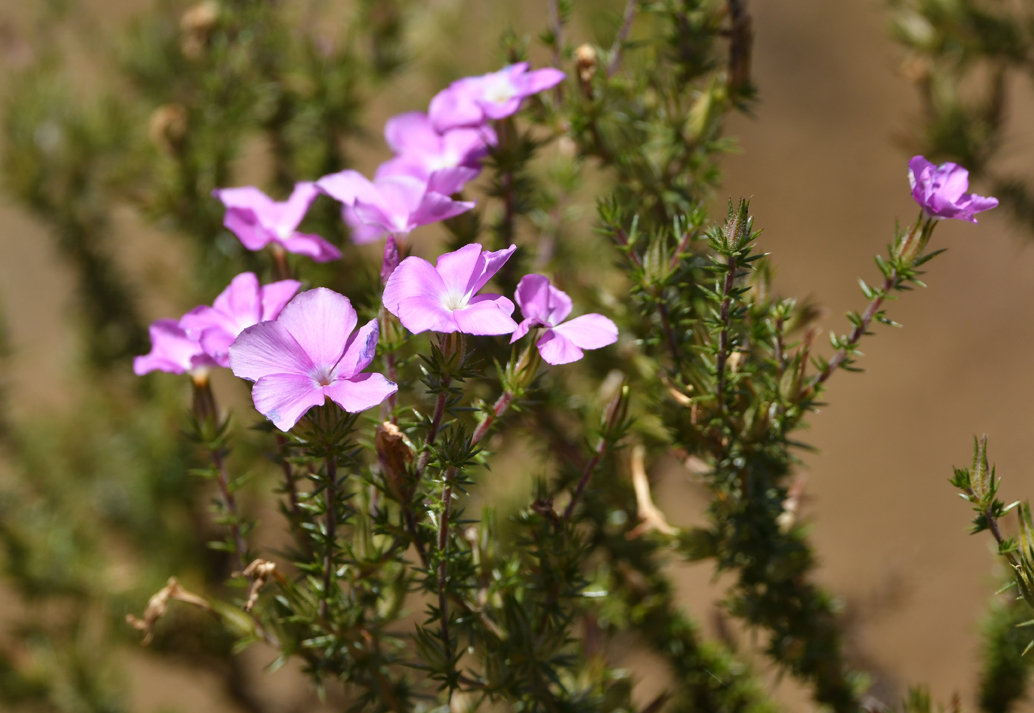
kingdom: Plantae
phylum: Tracheophyta
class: Magnoliopsida
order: Ericales
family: Polemoniaceae
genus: Linanthus
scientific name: Linanthus californicus
